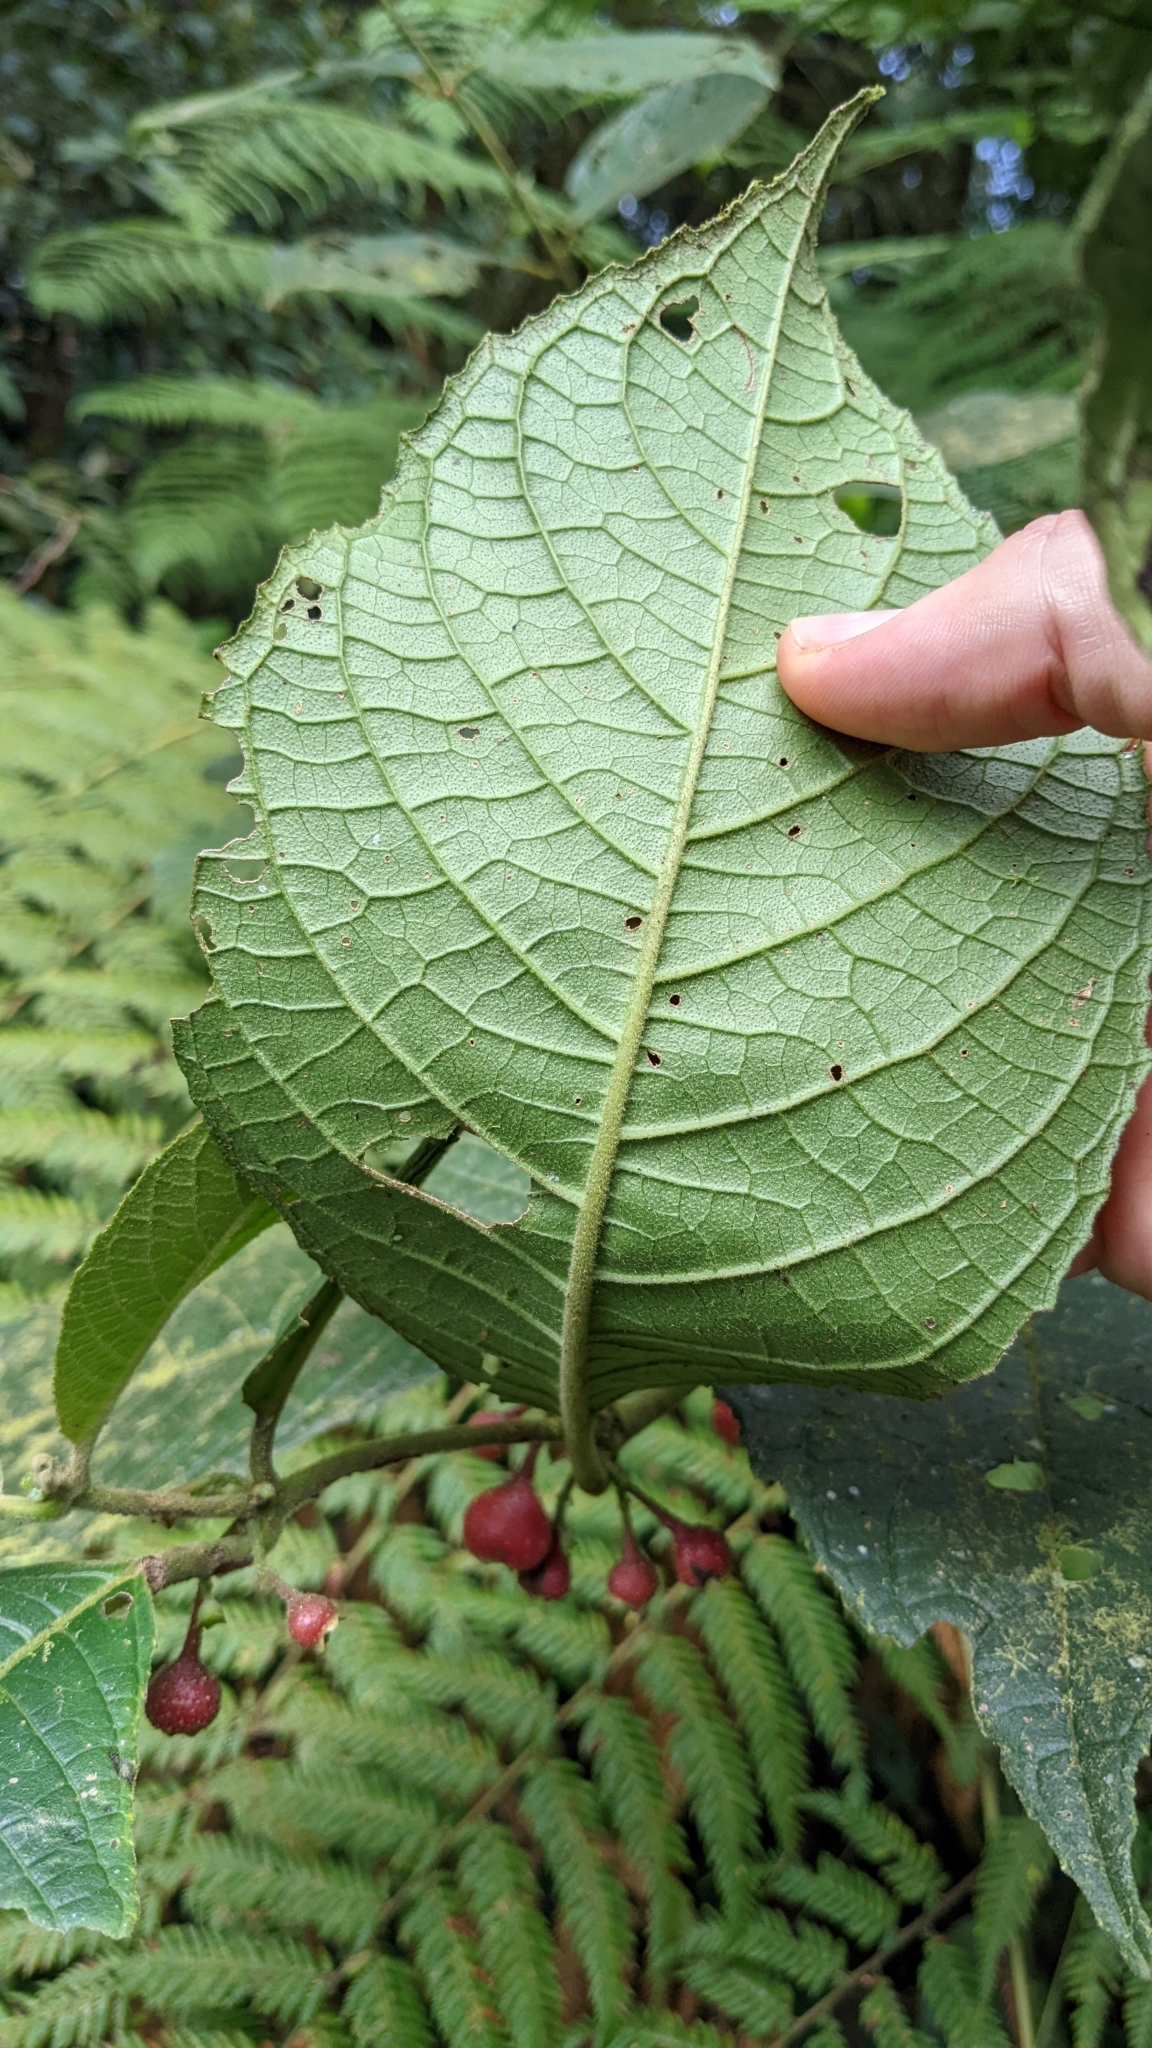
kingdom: Plantae
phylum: Tracheophyta
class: Magnoliopsida
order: Laurales
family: Siparunaceae
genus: Siparuna
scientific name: Siparuna gesnerioides
